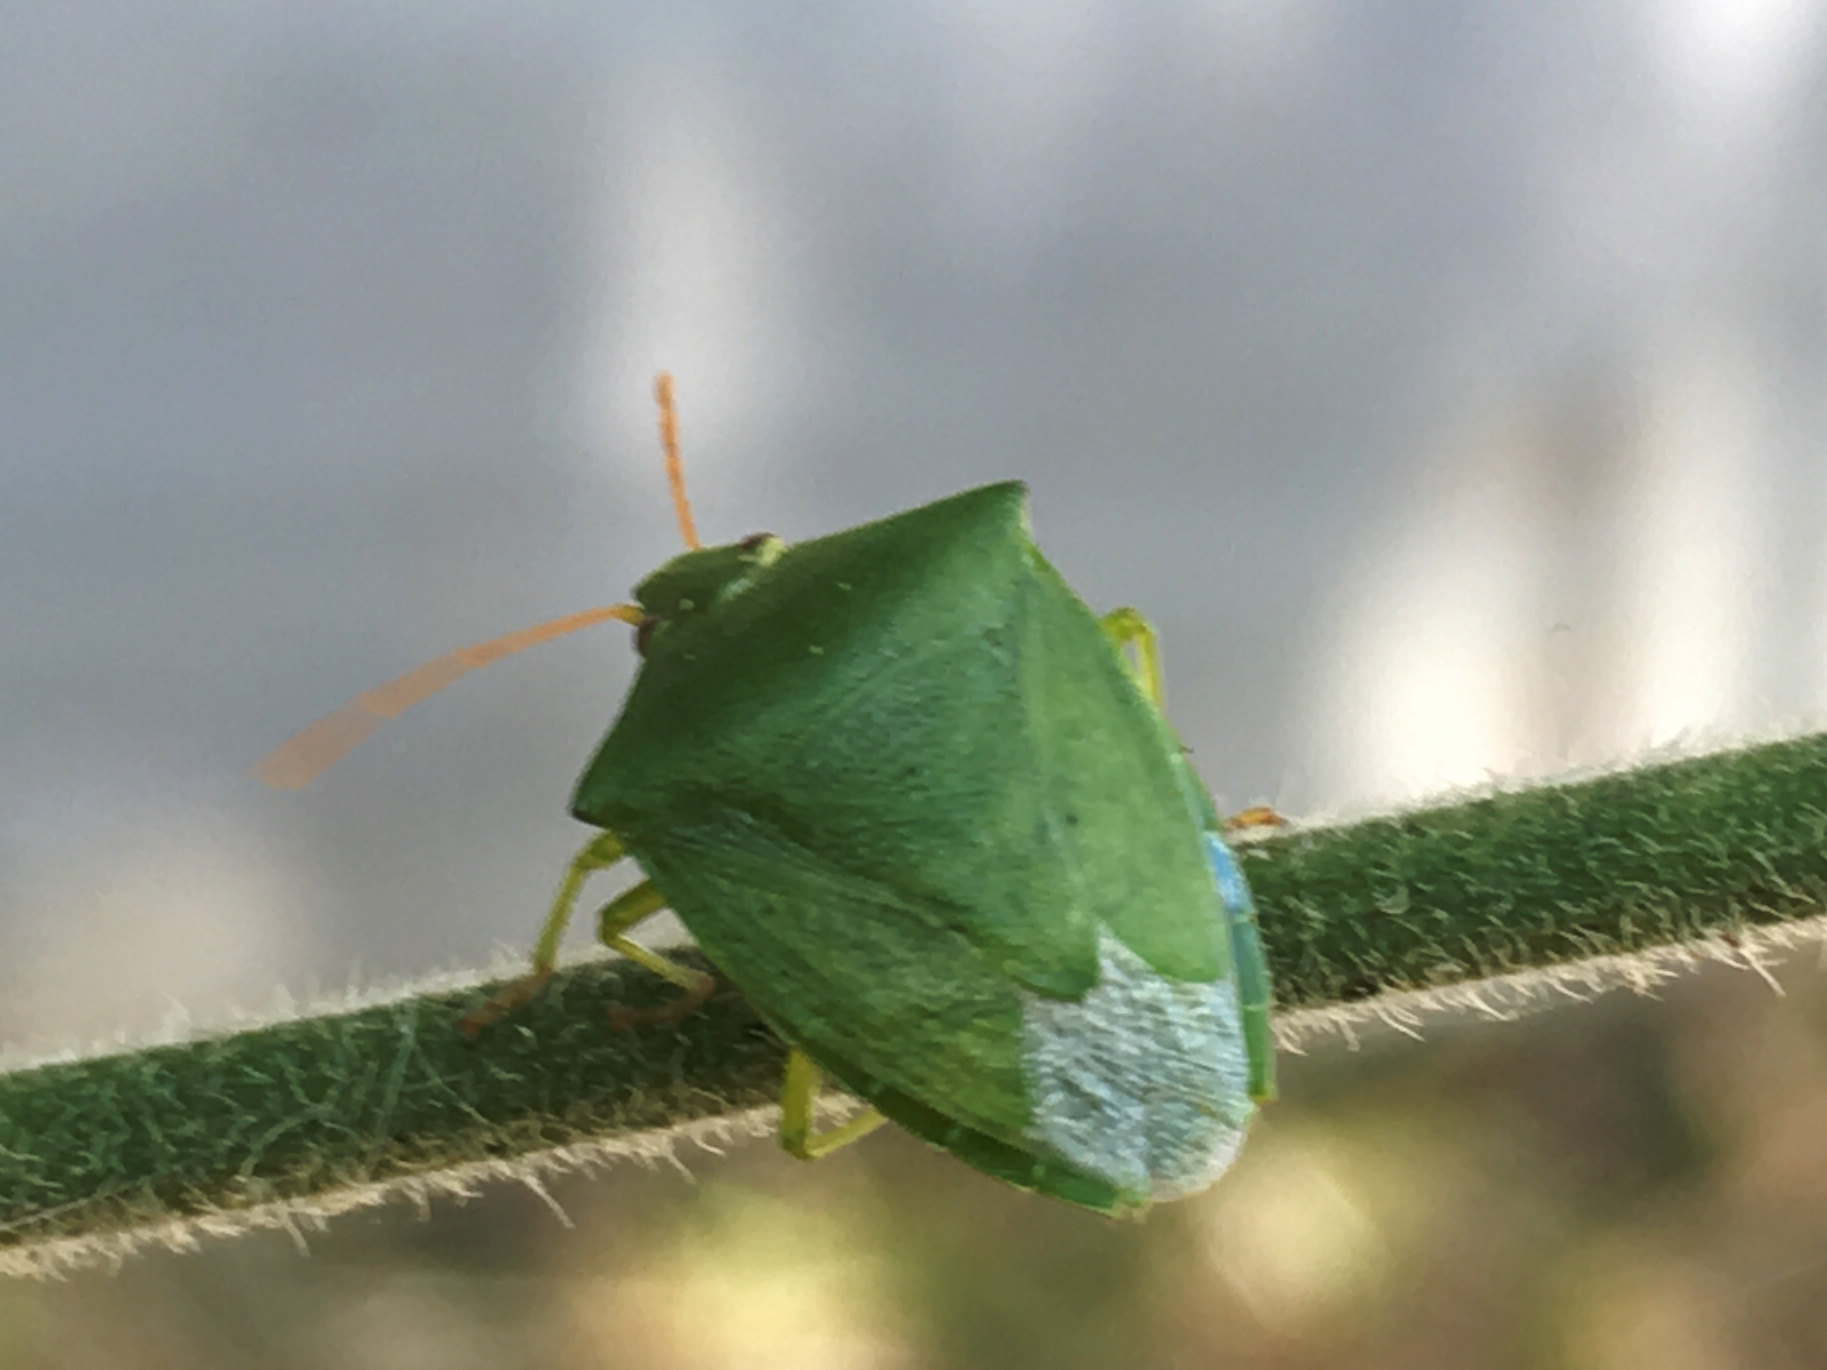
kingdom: Animalia
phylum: Arthropoda
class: Insecta
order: Hemiptera
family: Pentatomidae
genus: Cuspicona
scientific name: Cuspicona simplex
